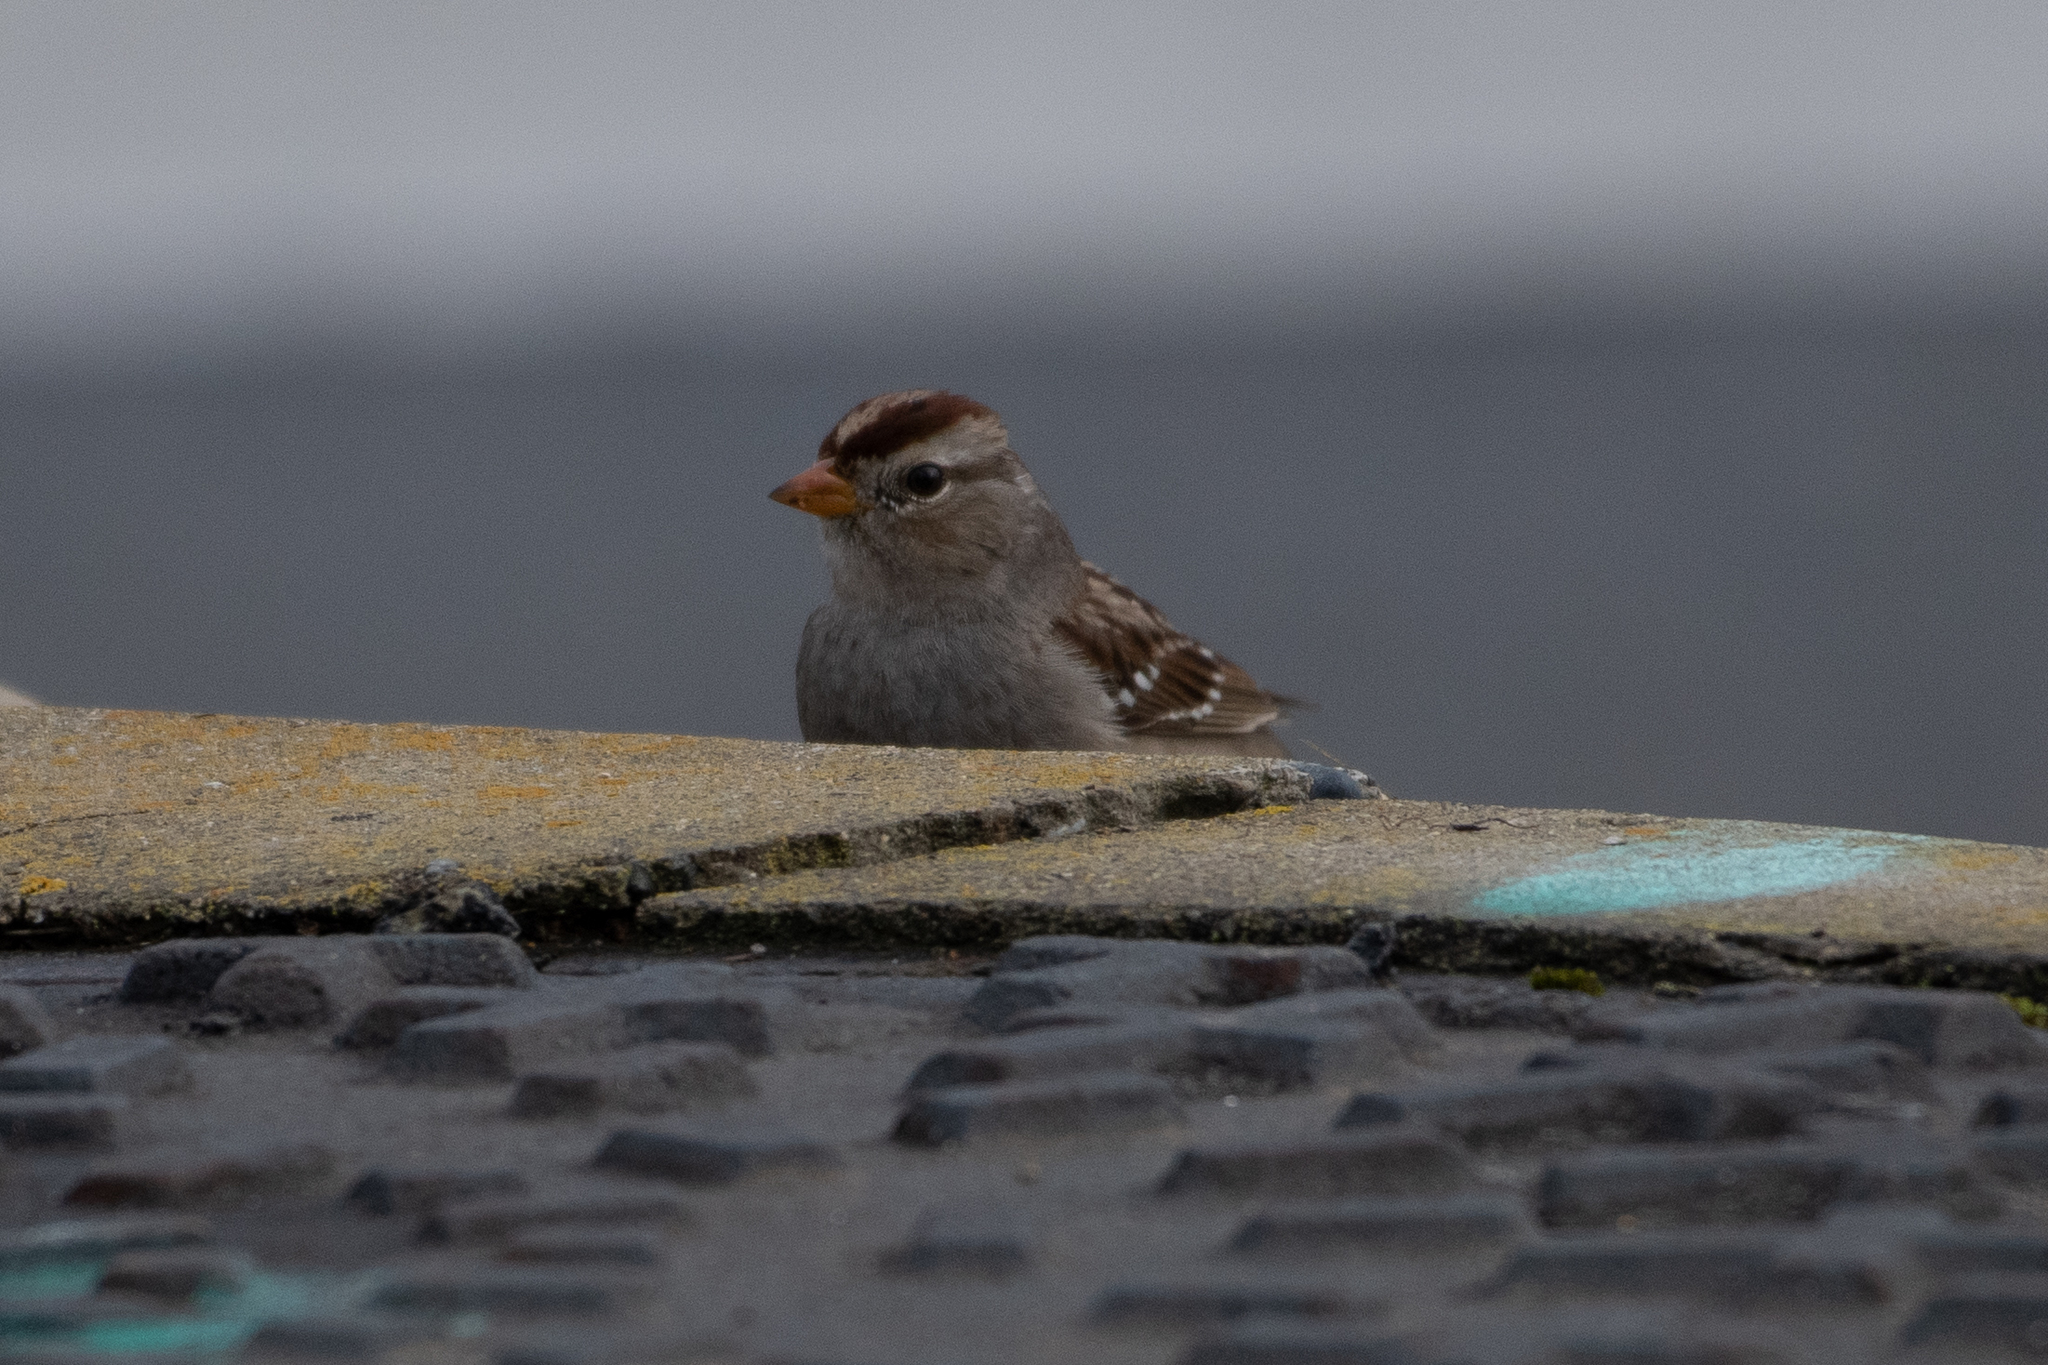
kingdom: Animalia
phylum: Chordata
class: Aves
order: Passeriformes
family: Passerellidae
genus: Zonotrichia
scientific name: Zonotrichia leucophrys
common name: White-crowned sparrow
